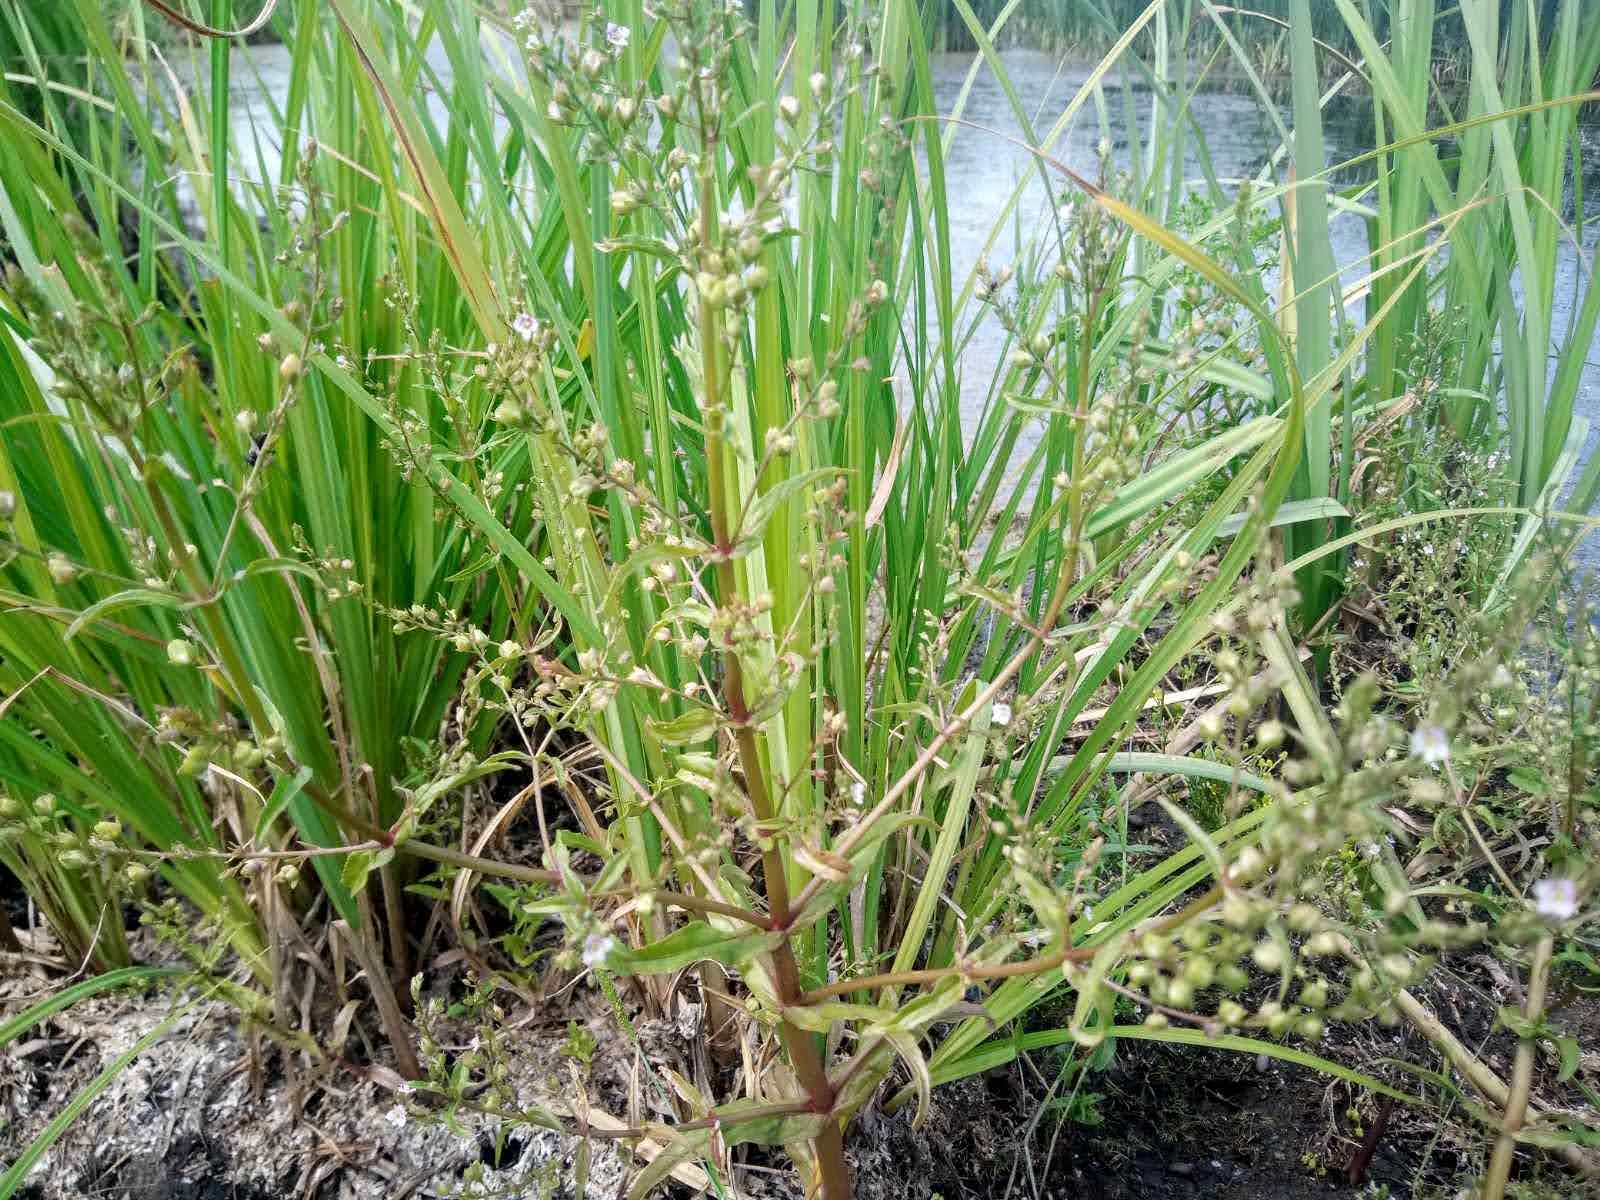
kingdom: Plantae
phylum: Tracheophyta
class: Magnoliopsida
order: Lamiales
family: Plantaginaceae
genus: Veronica
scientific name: Veronica anagallis-aquatica
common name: Water speedwell
